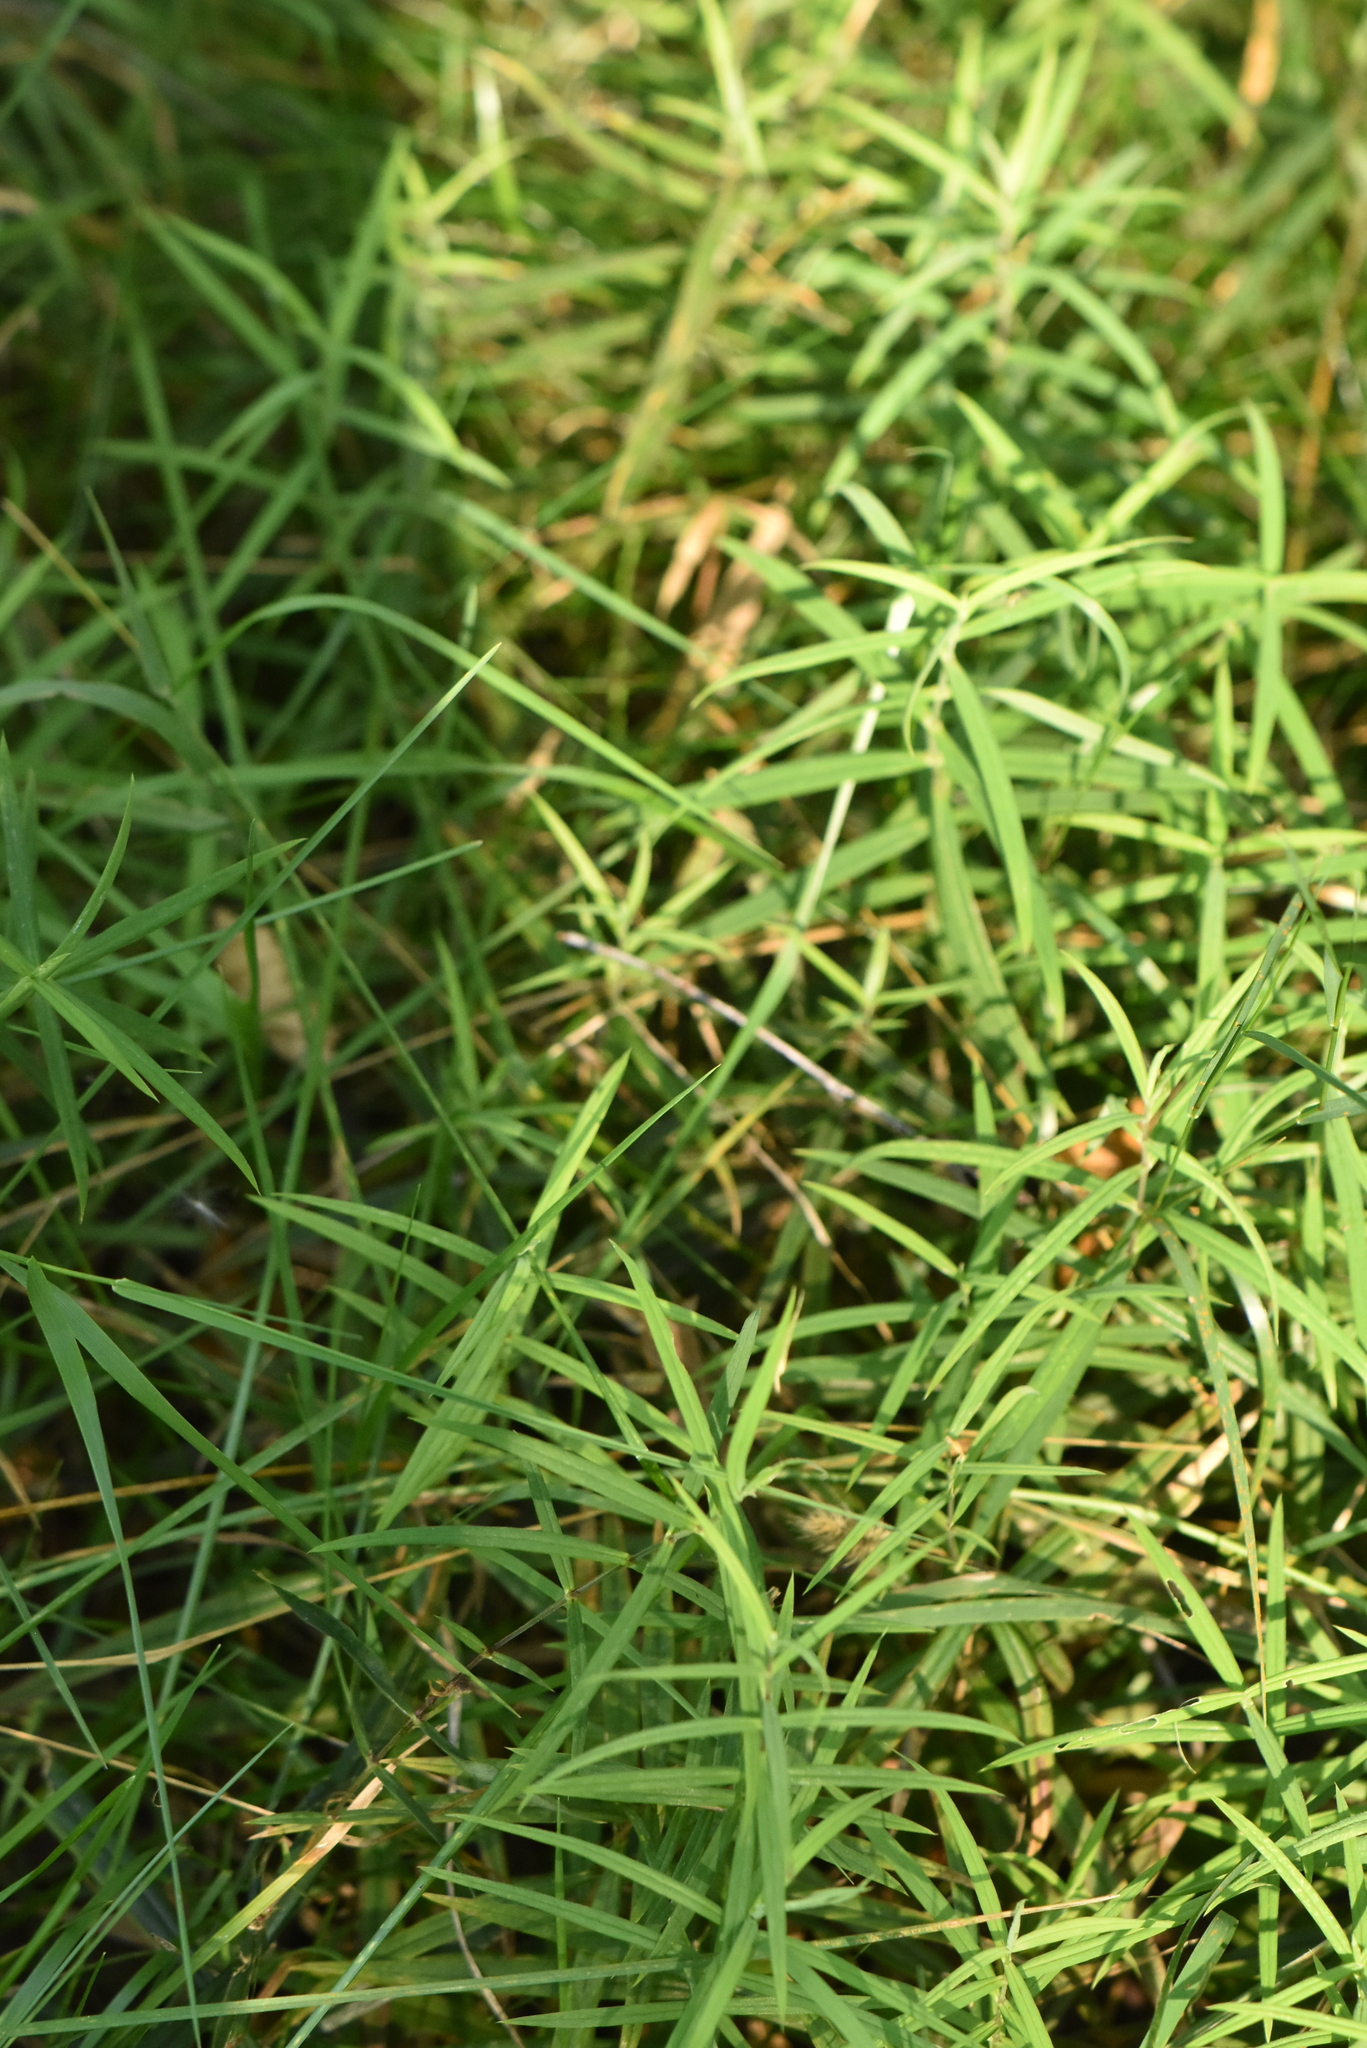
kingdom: Plantae
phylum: Tracheophyta
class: Magnoliopsida
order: Caryophyllales
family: Caryophyllaceae
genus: Rabelera
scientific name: Rabelera holostea
